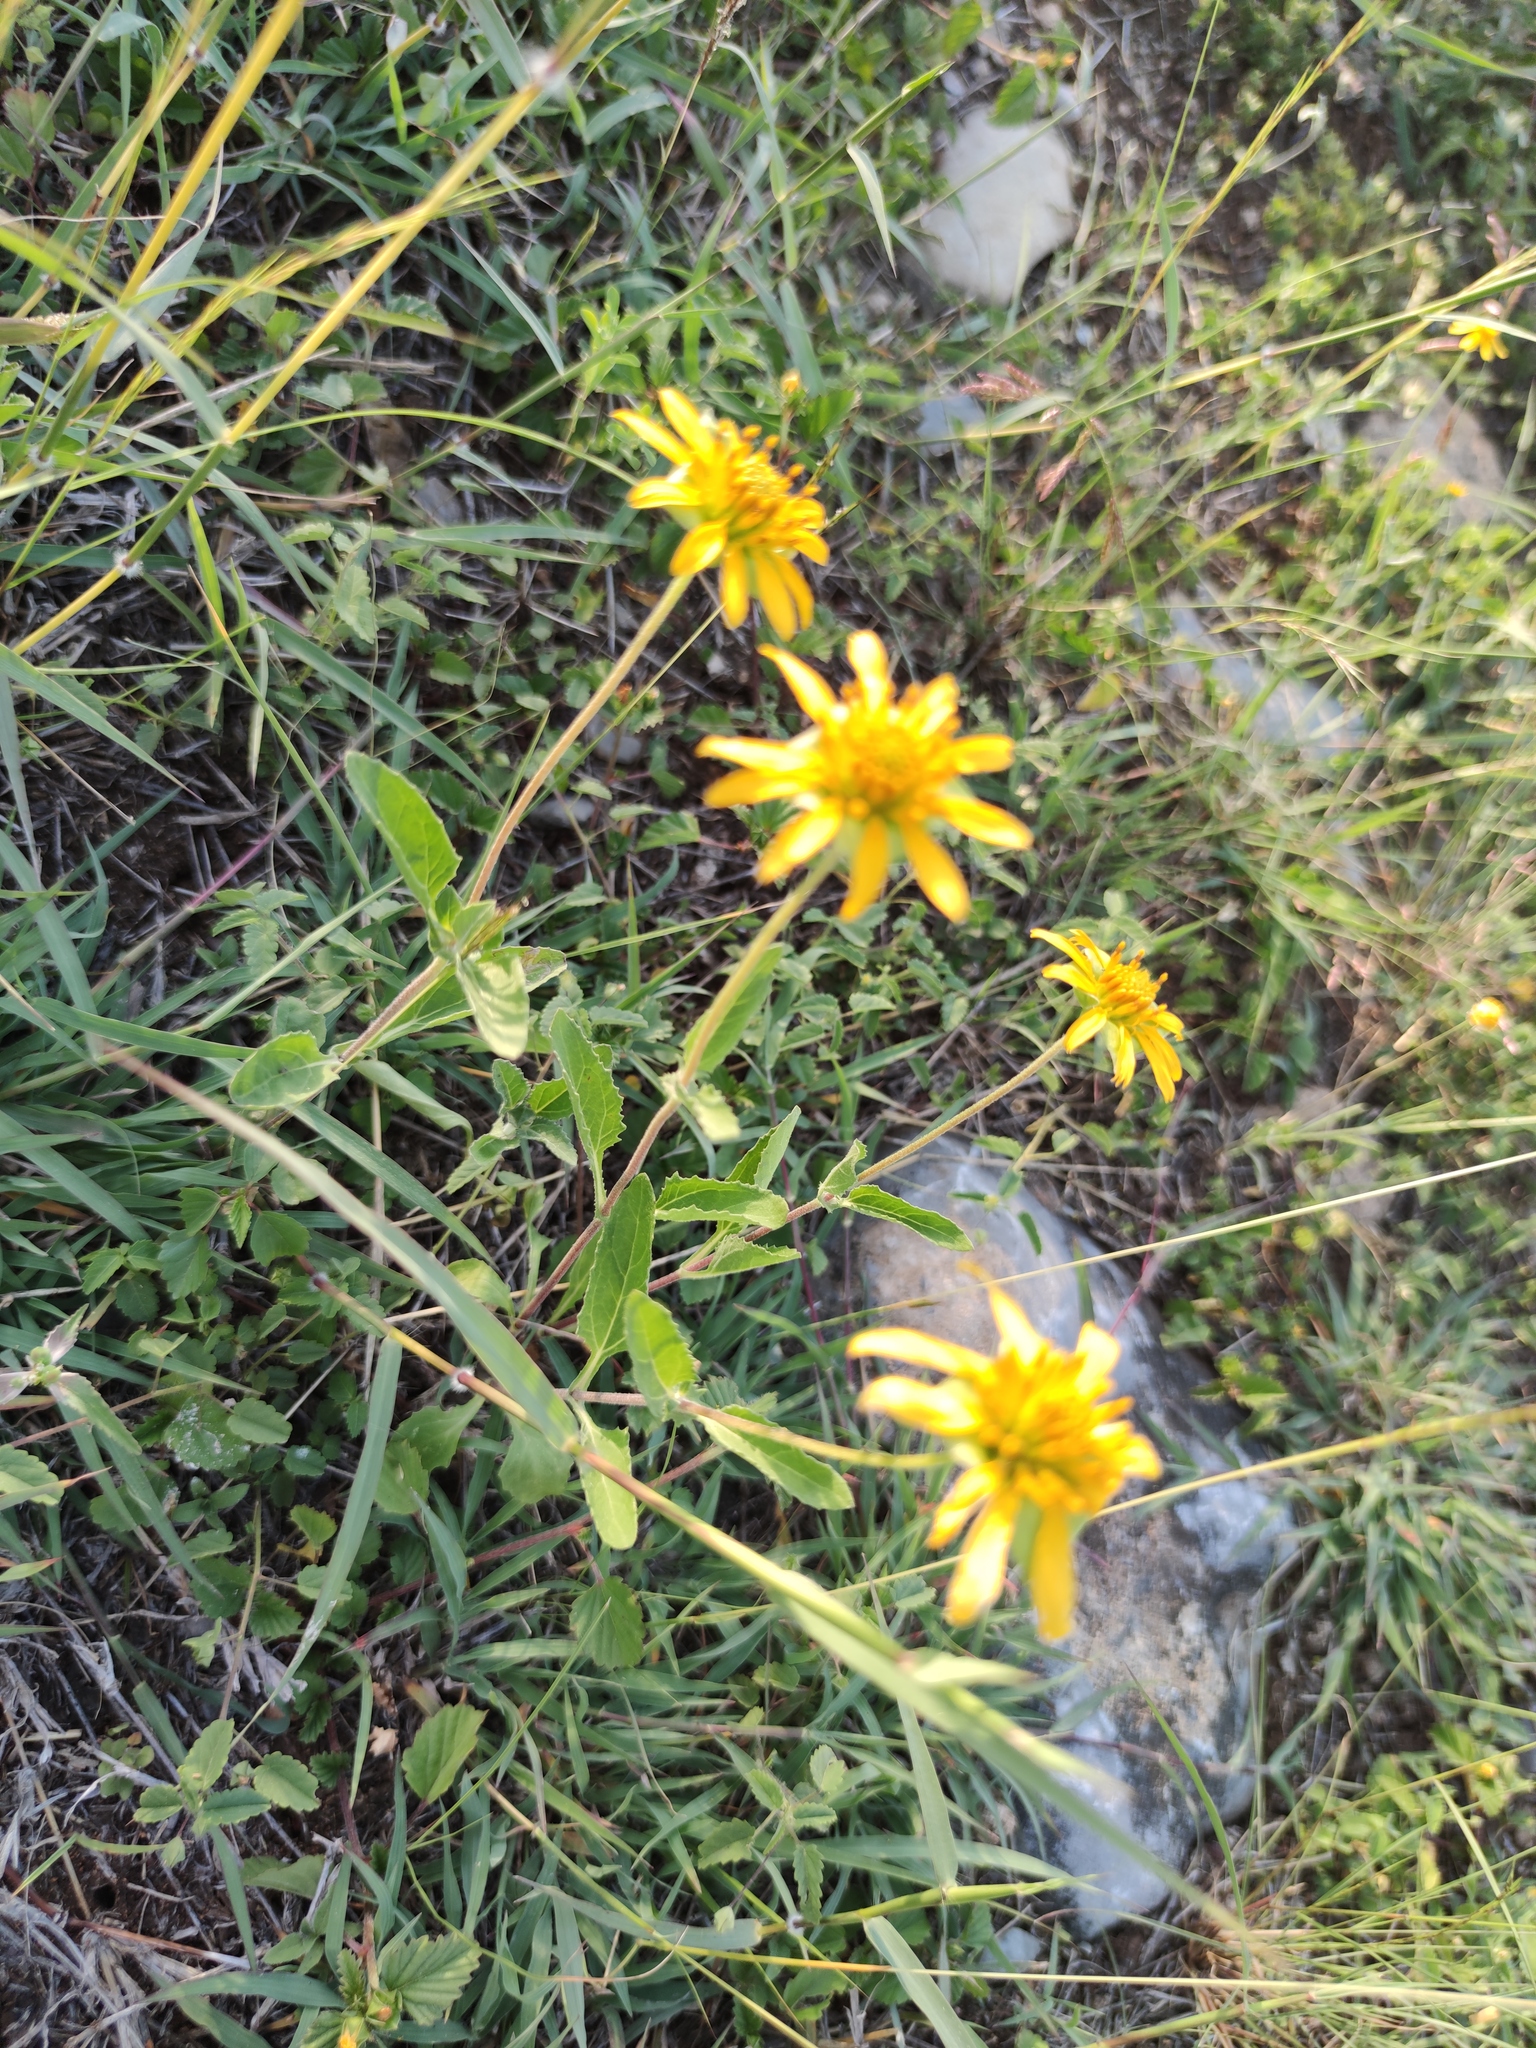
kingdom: Plantae
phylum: Tracheophyta
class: Magnoliopsida
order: Asterales
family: Asteraceae
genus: Tetragonotheca
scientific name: Tetragonotheca texana
